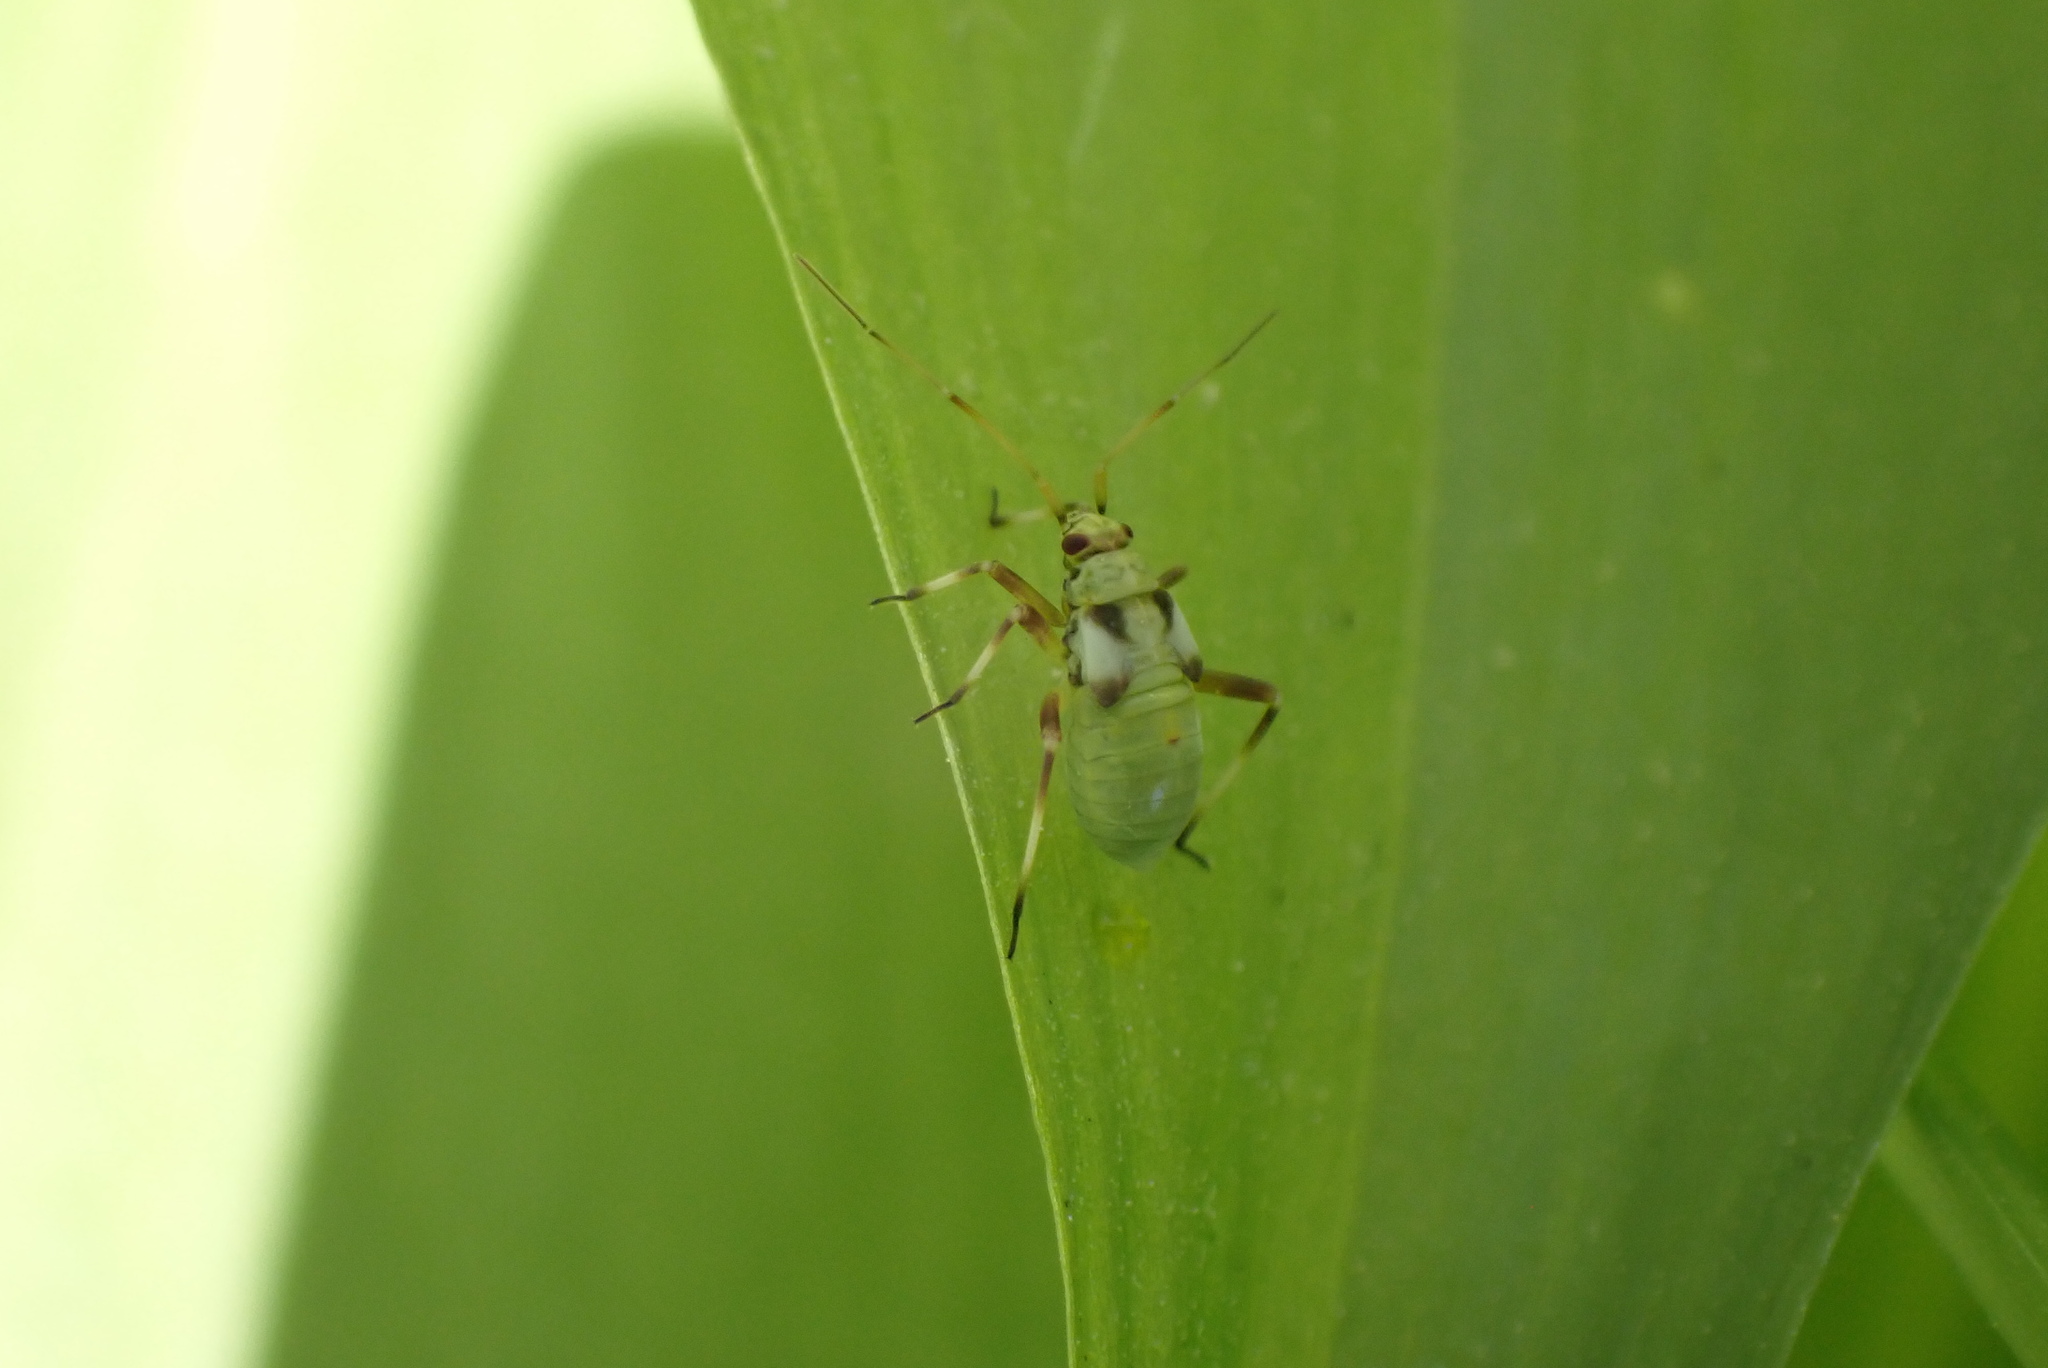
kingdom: Animalia
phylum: Arthropoda
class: Insecta
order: Hemiptera
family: Miridae
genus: Calocoris
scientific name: Calocoris alpestris
